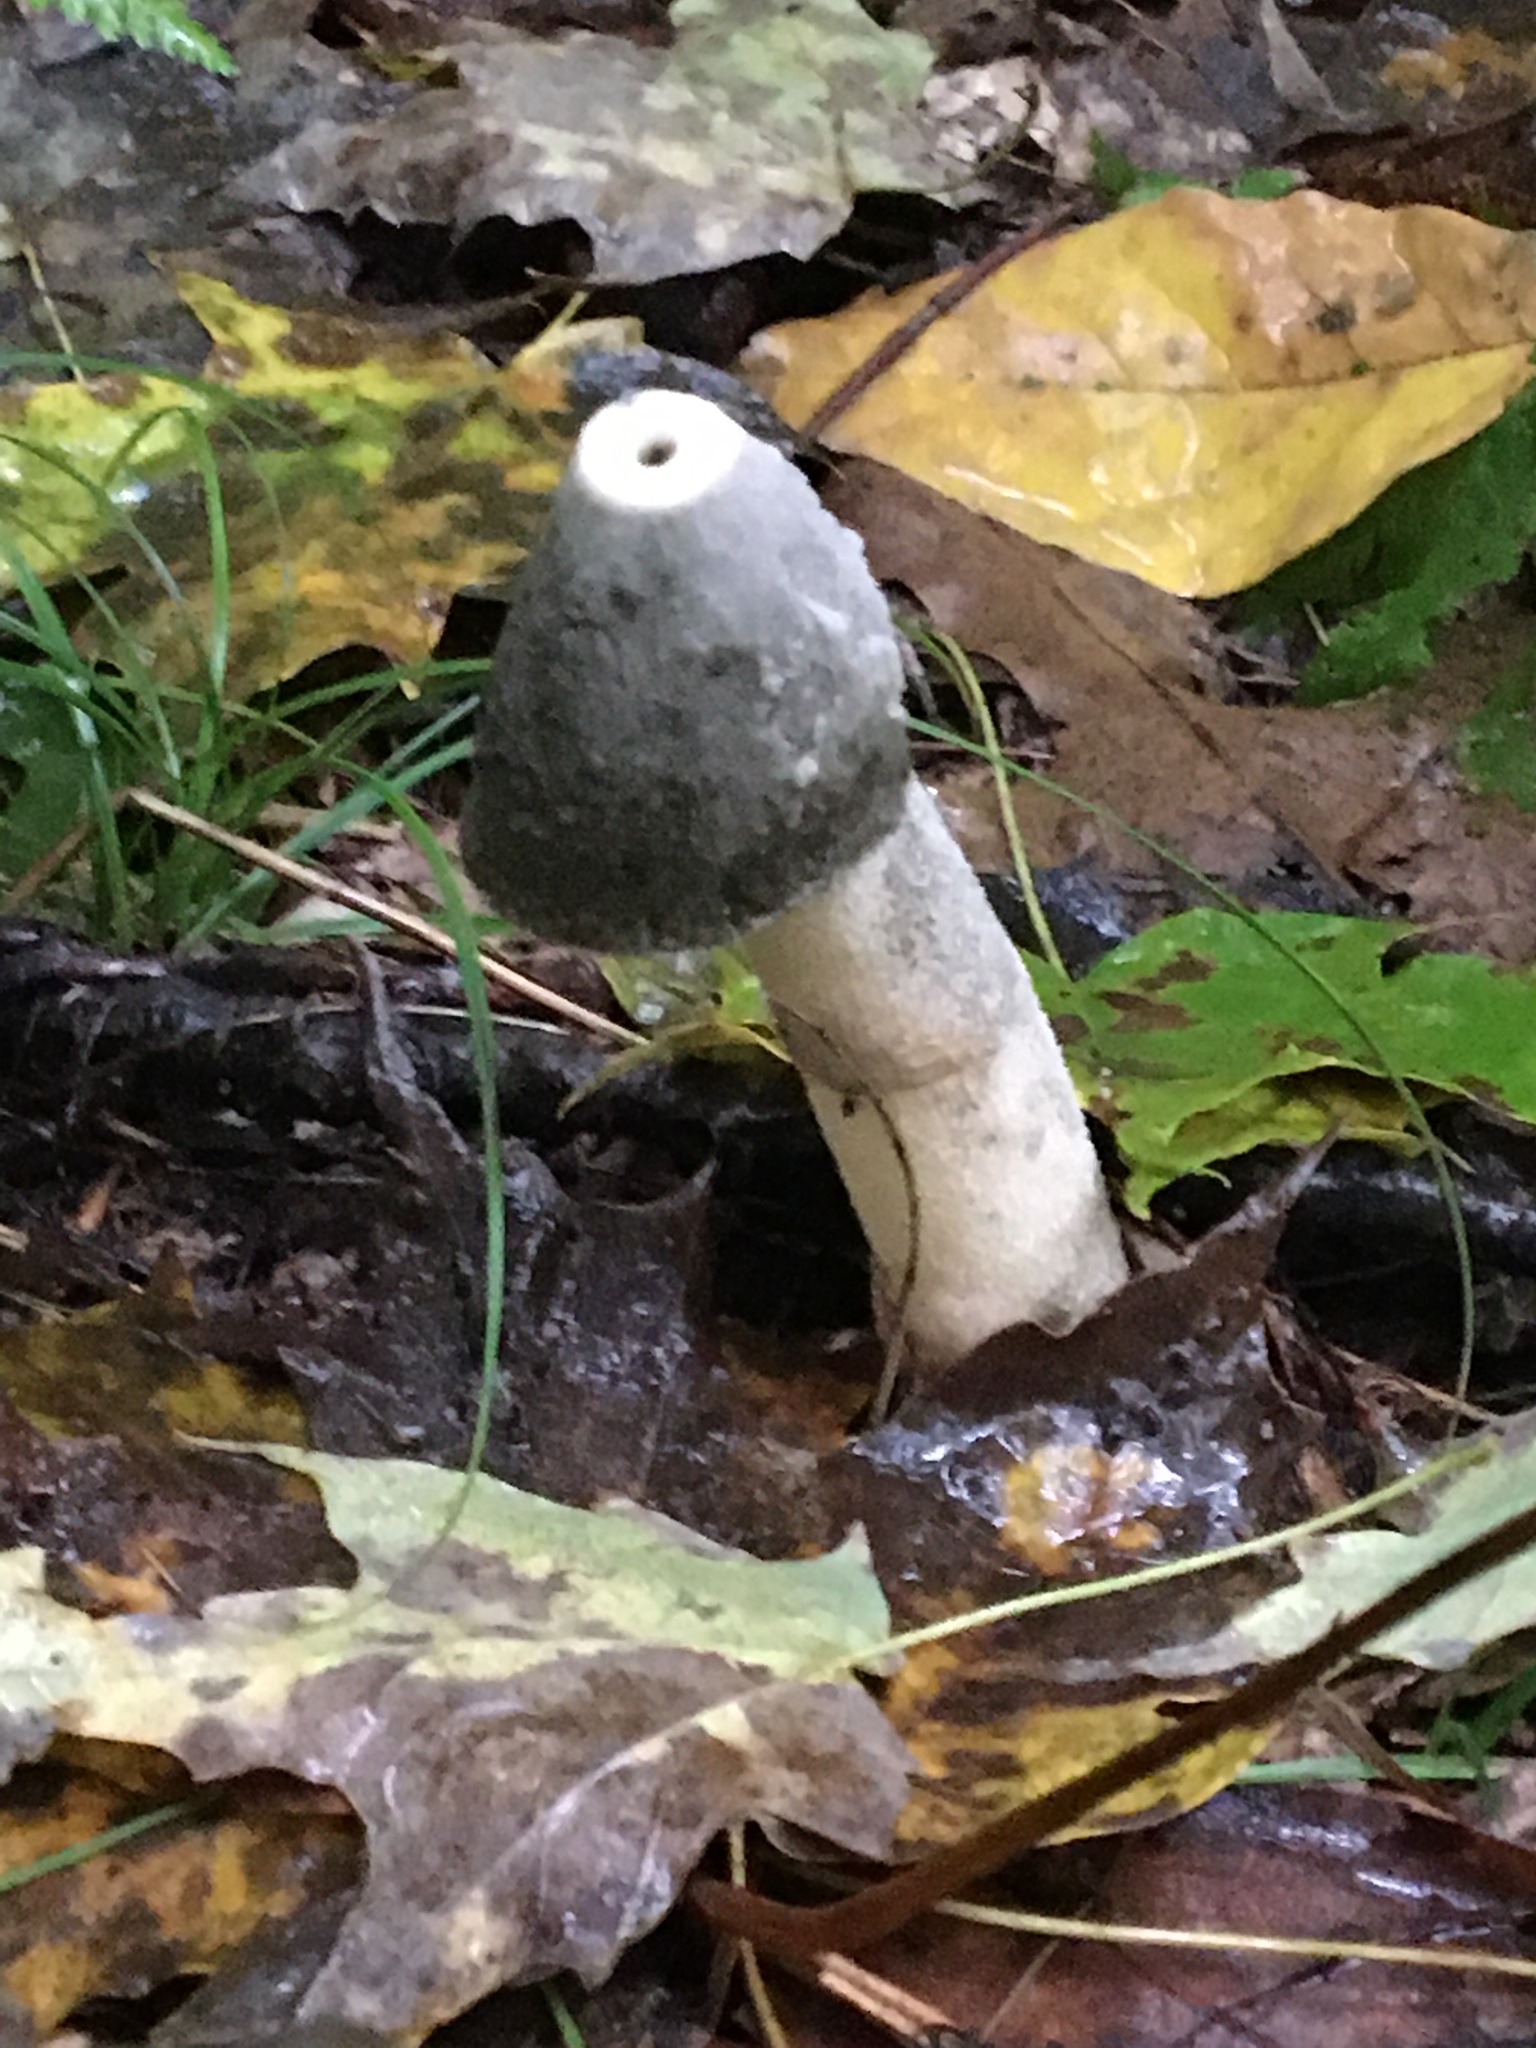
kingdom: Fungi
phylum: Basidiomycota
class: Agaricomycetes
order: Phallales
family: Phallaceae
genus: Phallus
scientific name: Phallus ravenelii
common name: Ravenel's stinkhorn
